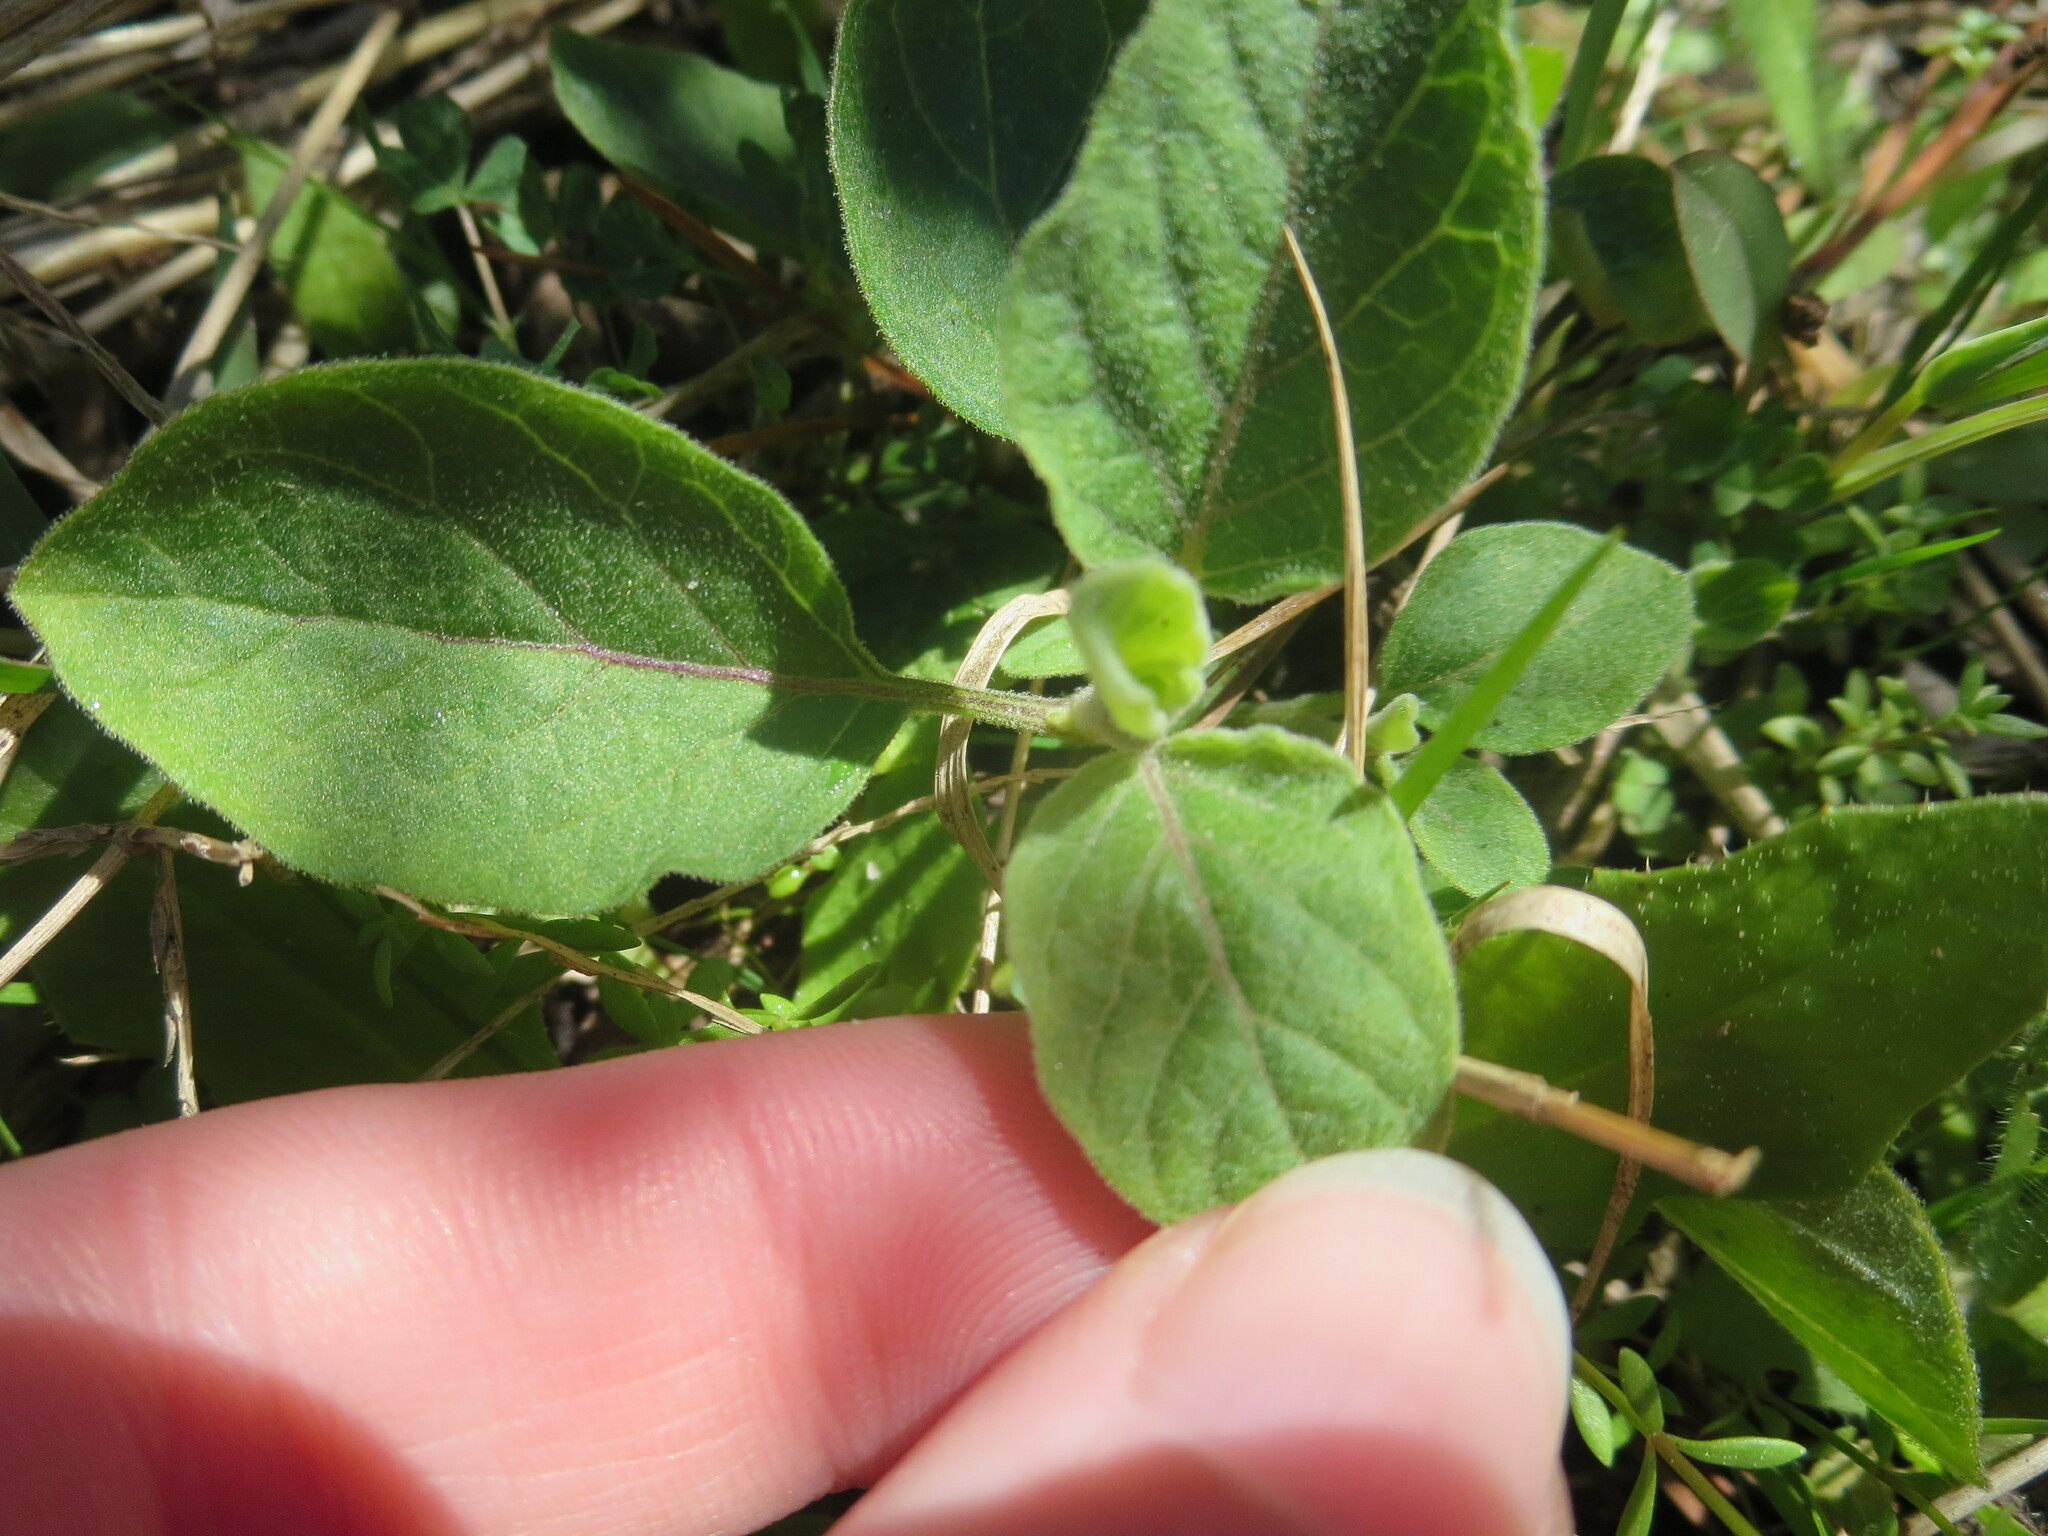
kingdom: Plantae
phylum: Tracheophyta
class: Magnoliopsida
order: Solanales
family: Solanaceae
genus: Physalis
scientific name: Physalis walteri
